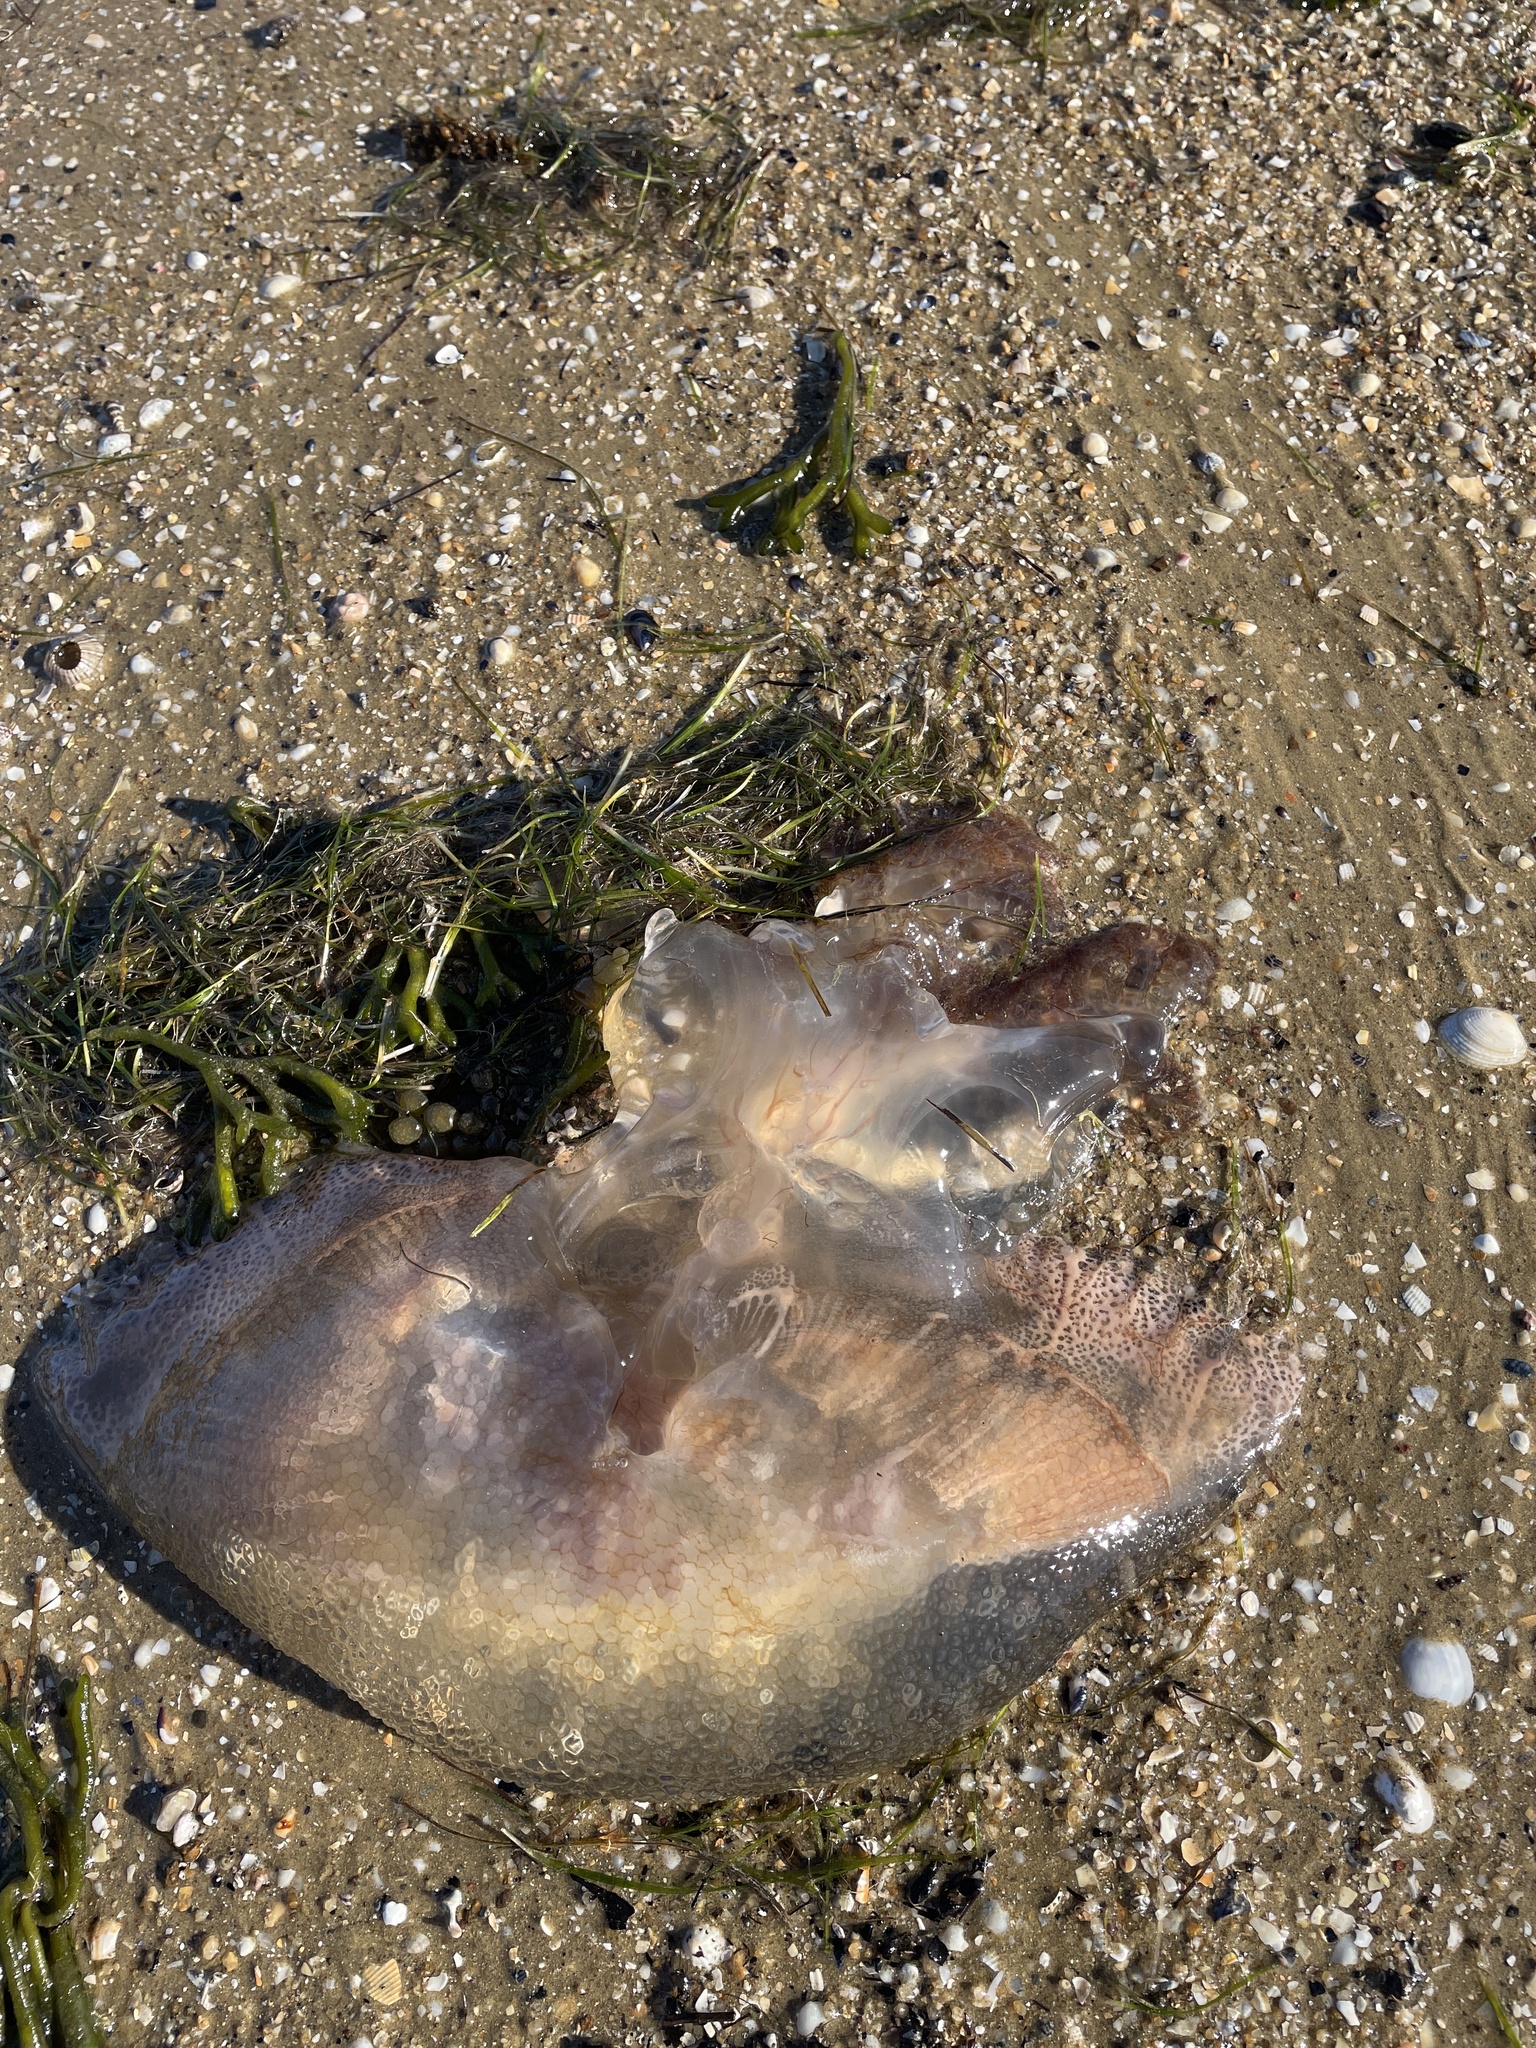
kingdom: Animalia
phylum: Cnidaria
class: Scyphozoa
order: Rhizostomeae
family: Lychnorhizidae
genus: Pseudorhiza
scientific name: Pseudorhiza haeckeli
